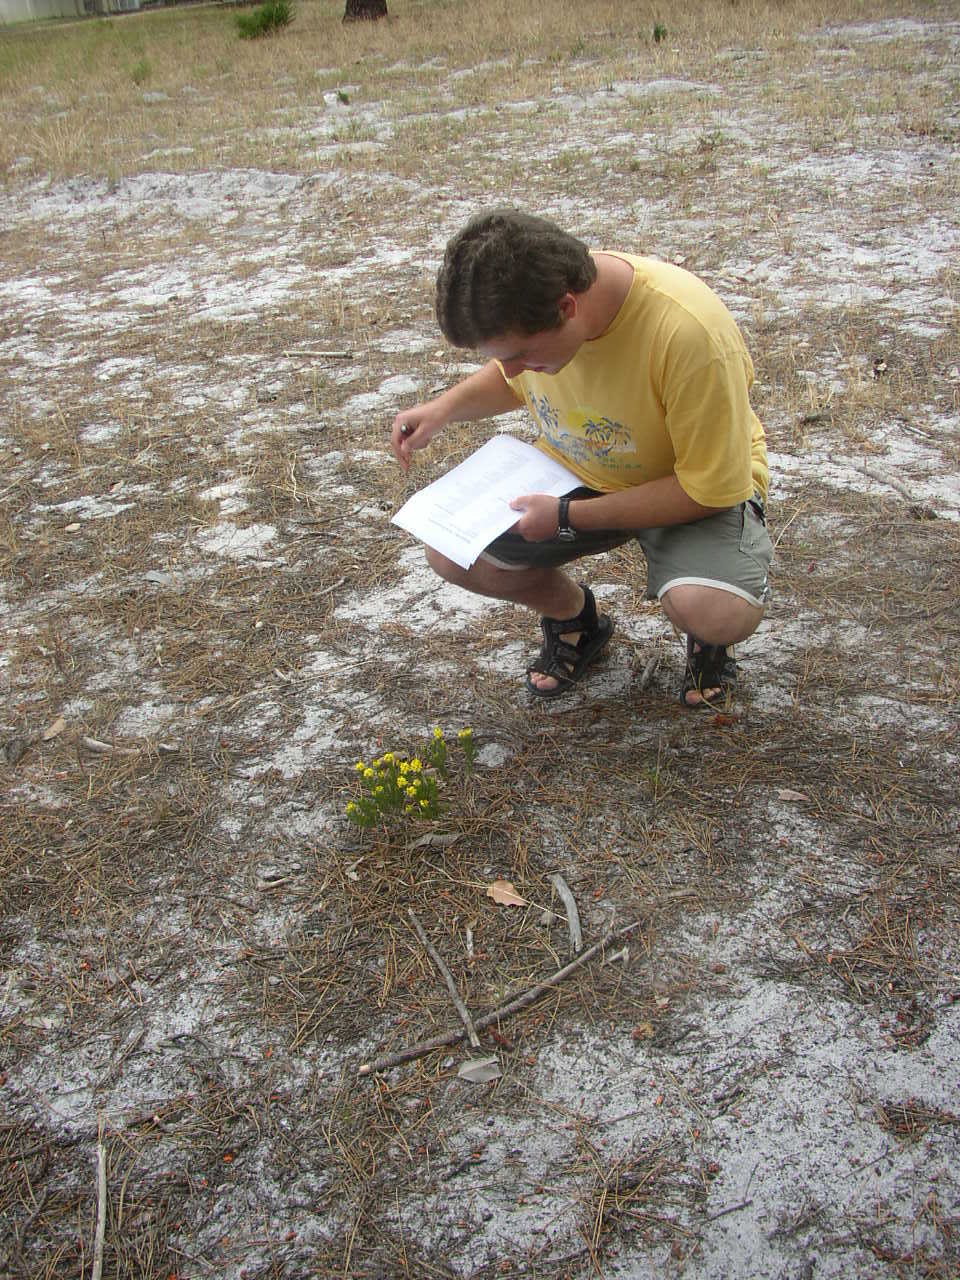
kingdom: Plantae
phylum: Tracheophyta
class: Magnoliopsida
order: Fabales
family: Fabaceae
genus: Aspalathus
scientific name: Aspalathus callosa
